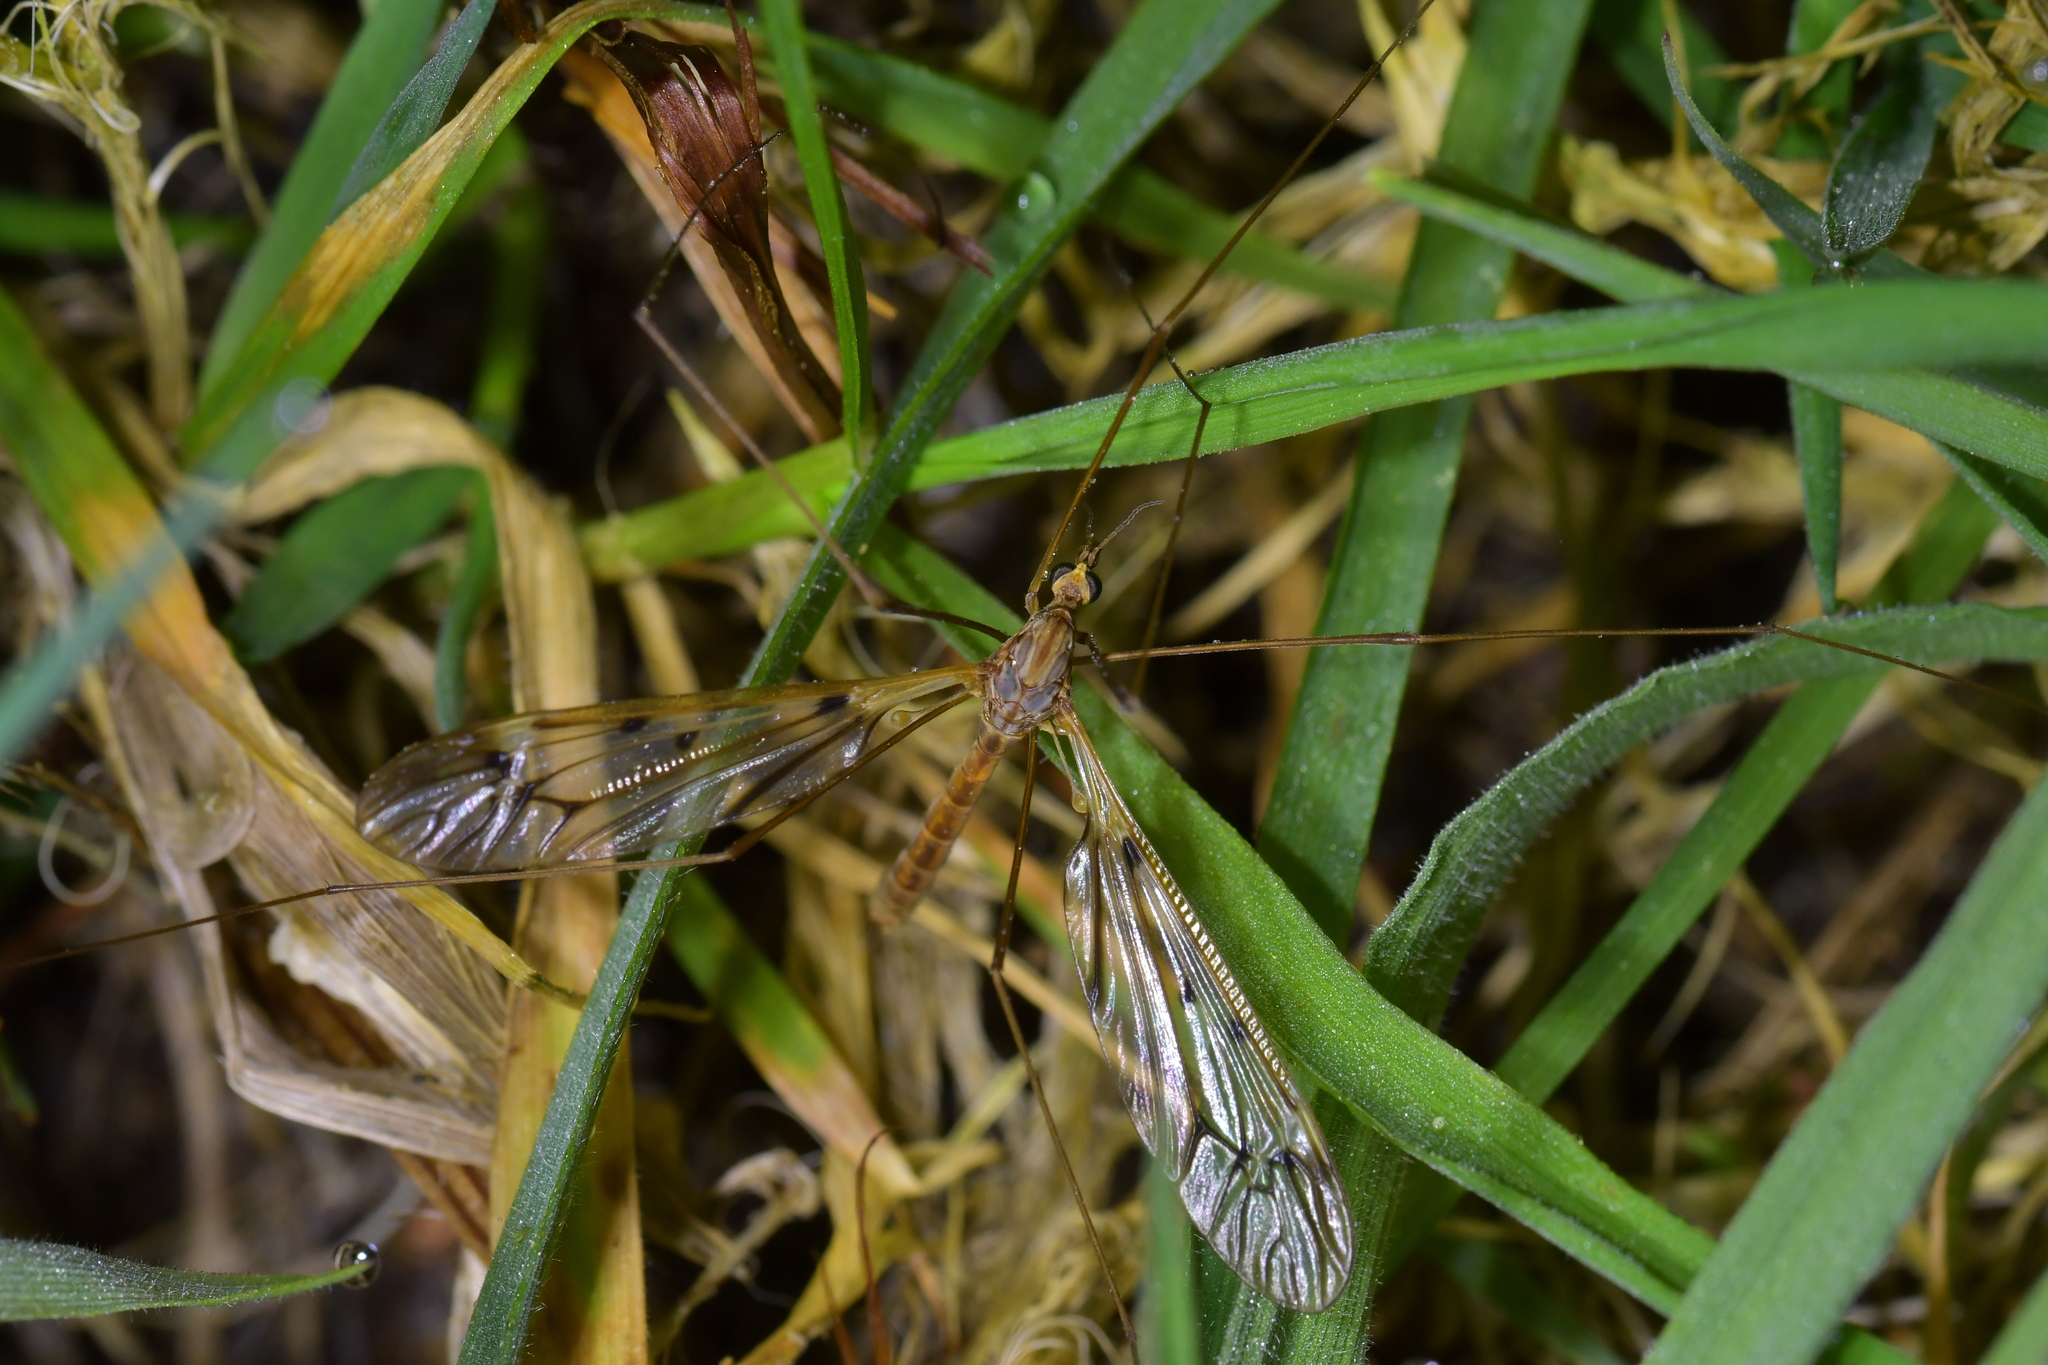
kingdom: Animalia
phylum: Arthropoda
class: Insecta
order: Diptera
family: Tipulidae
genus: Zelandotipula
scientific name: Zelandotipula novarae
